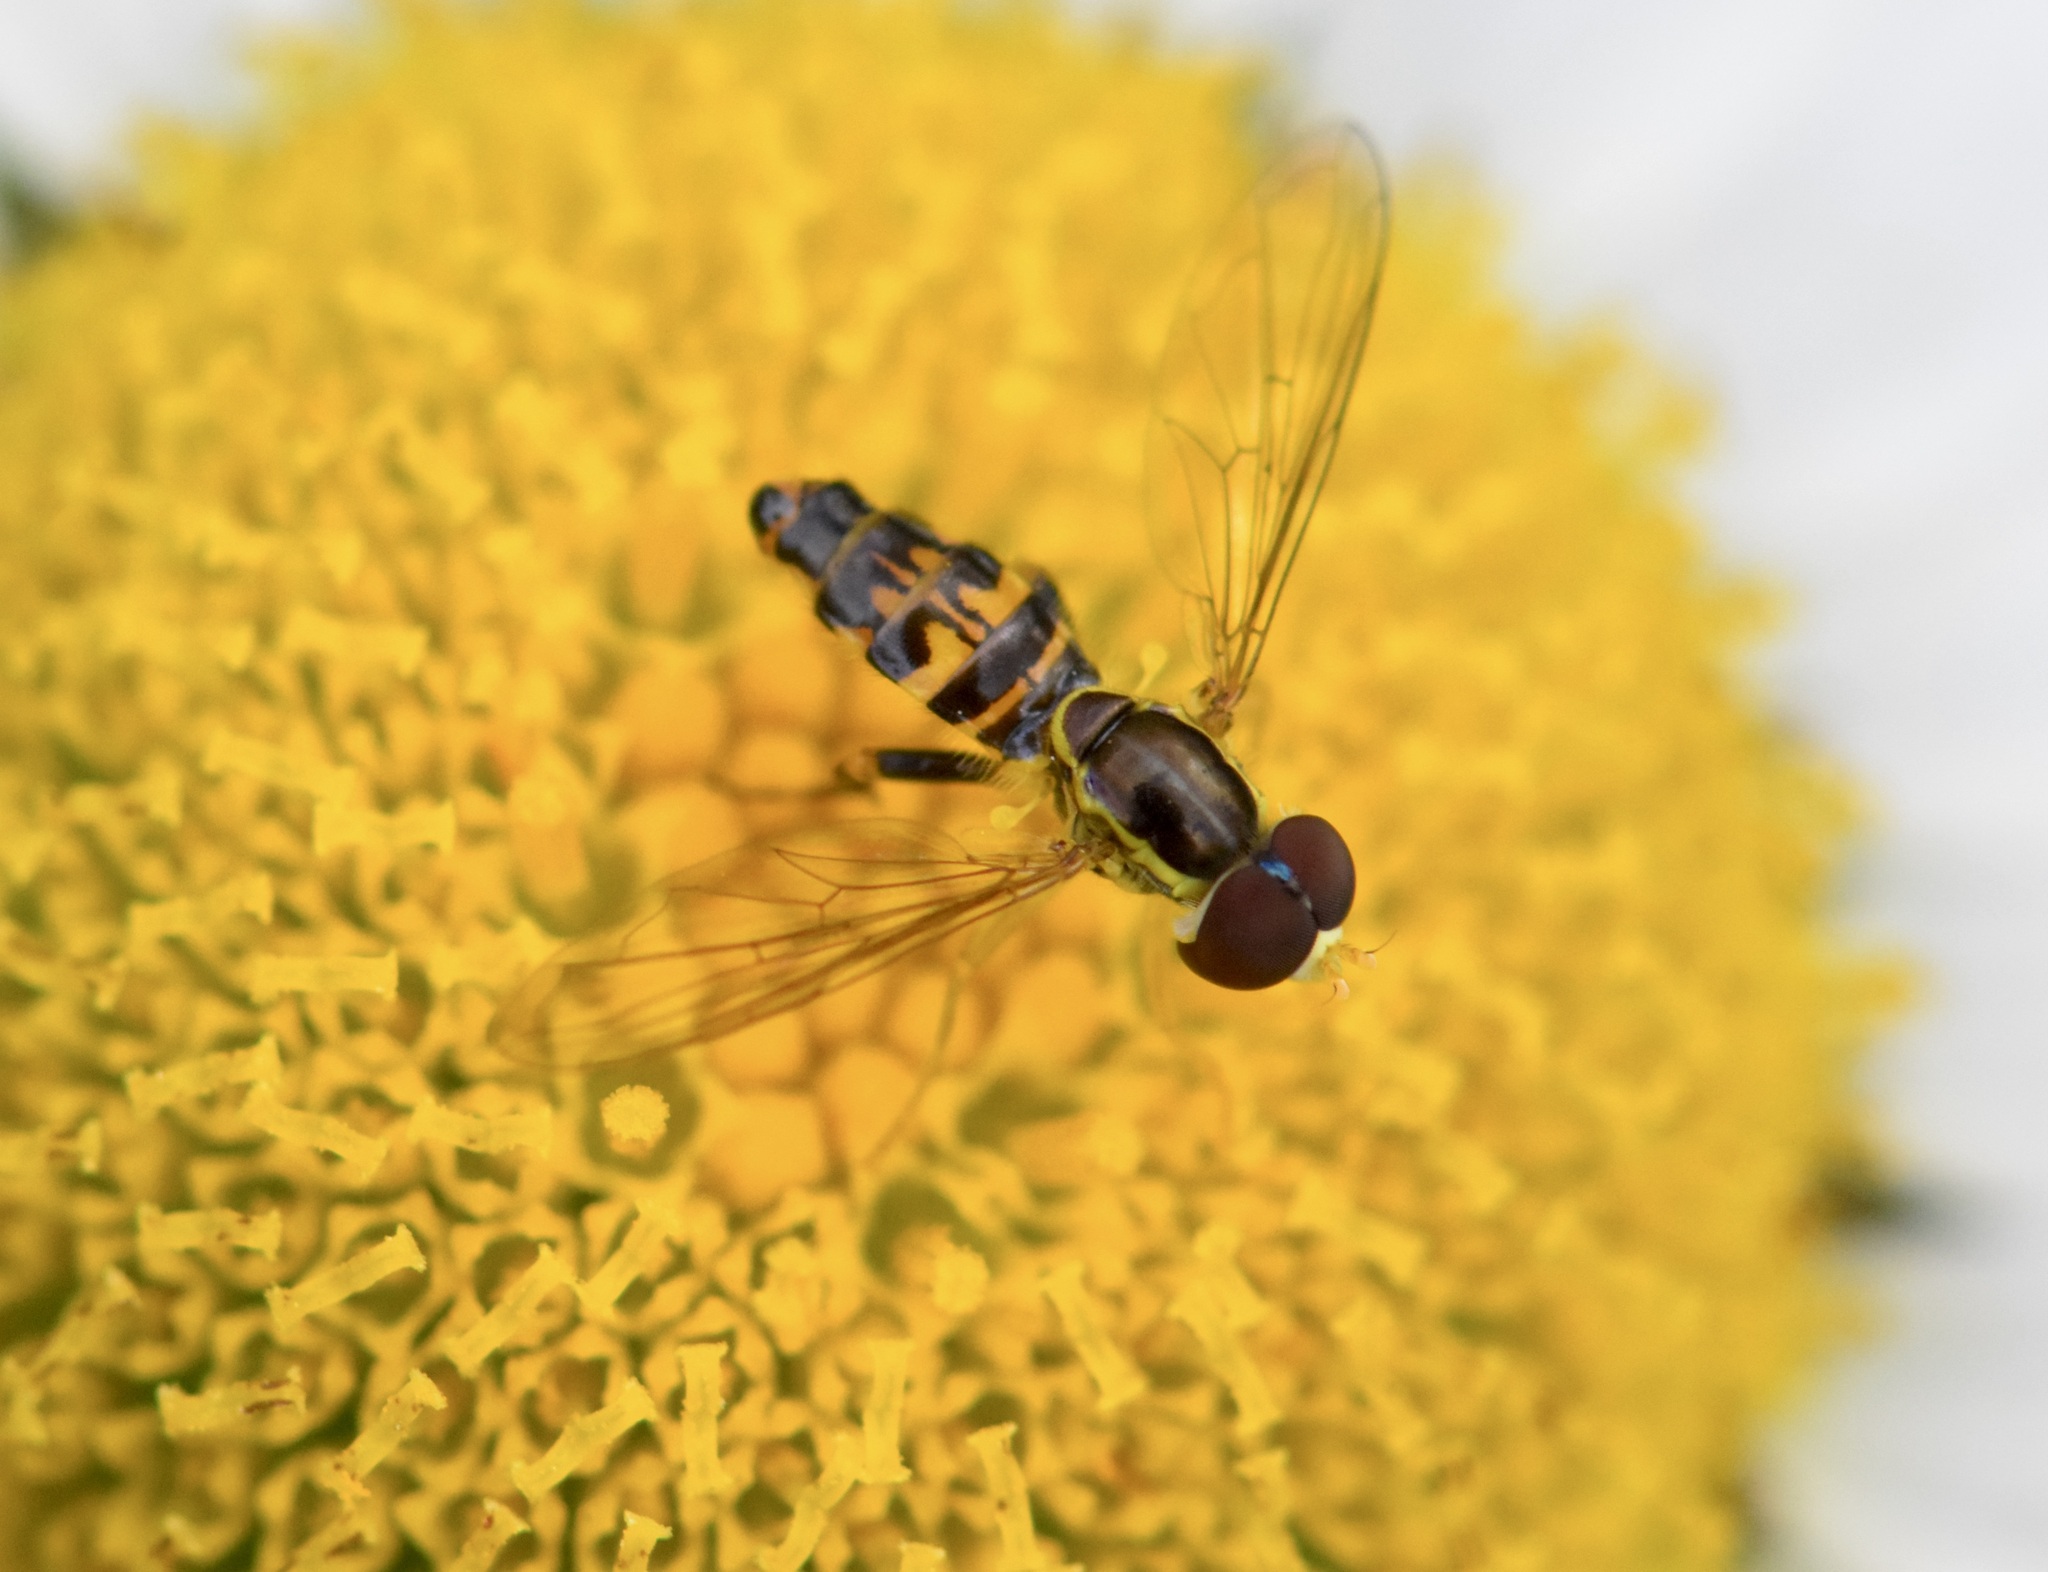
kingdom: Animalia
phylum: Arthropoda
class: Insecta
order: Diptera
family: Syrphidae
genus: Toxomerus
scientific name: Toxomerus geminatus
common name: Eastern calligrapher
